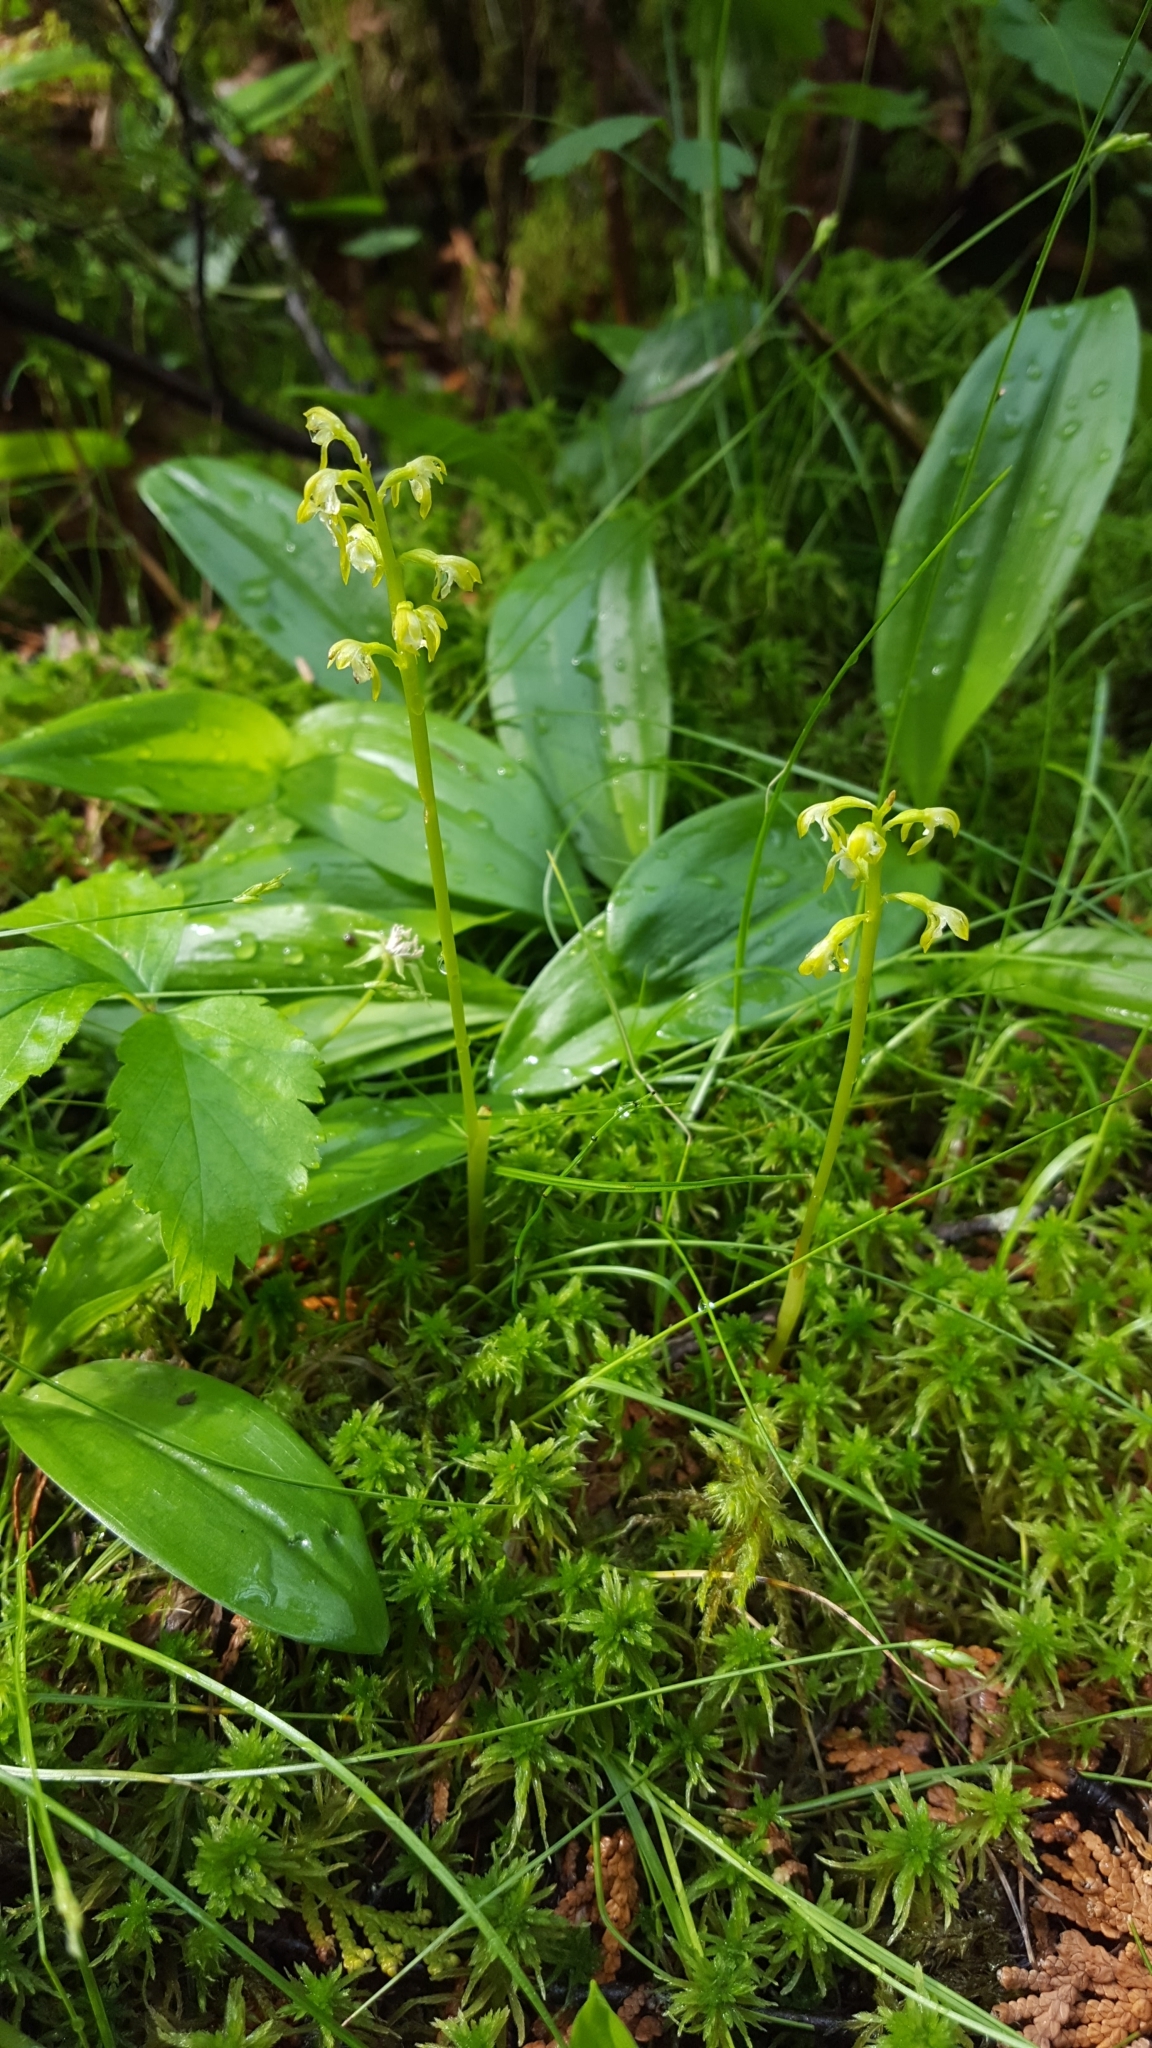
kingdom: Plantae
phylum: Tracheophyta
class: Liliopsida
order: Asparagales
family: Orchidaceae
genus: Corallorhiza
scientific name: Corallorhiza trifida
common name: Yellow coralroot
